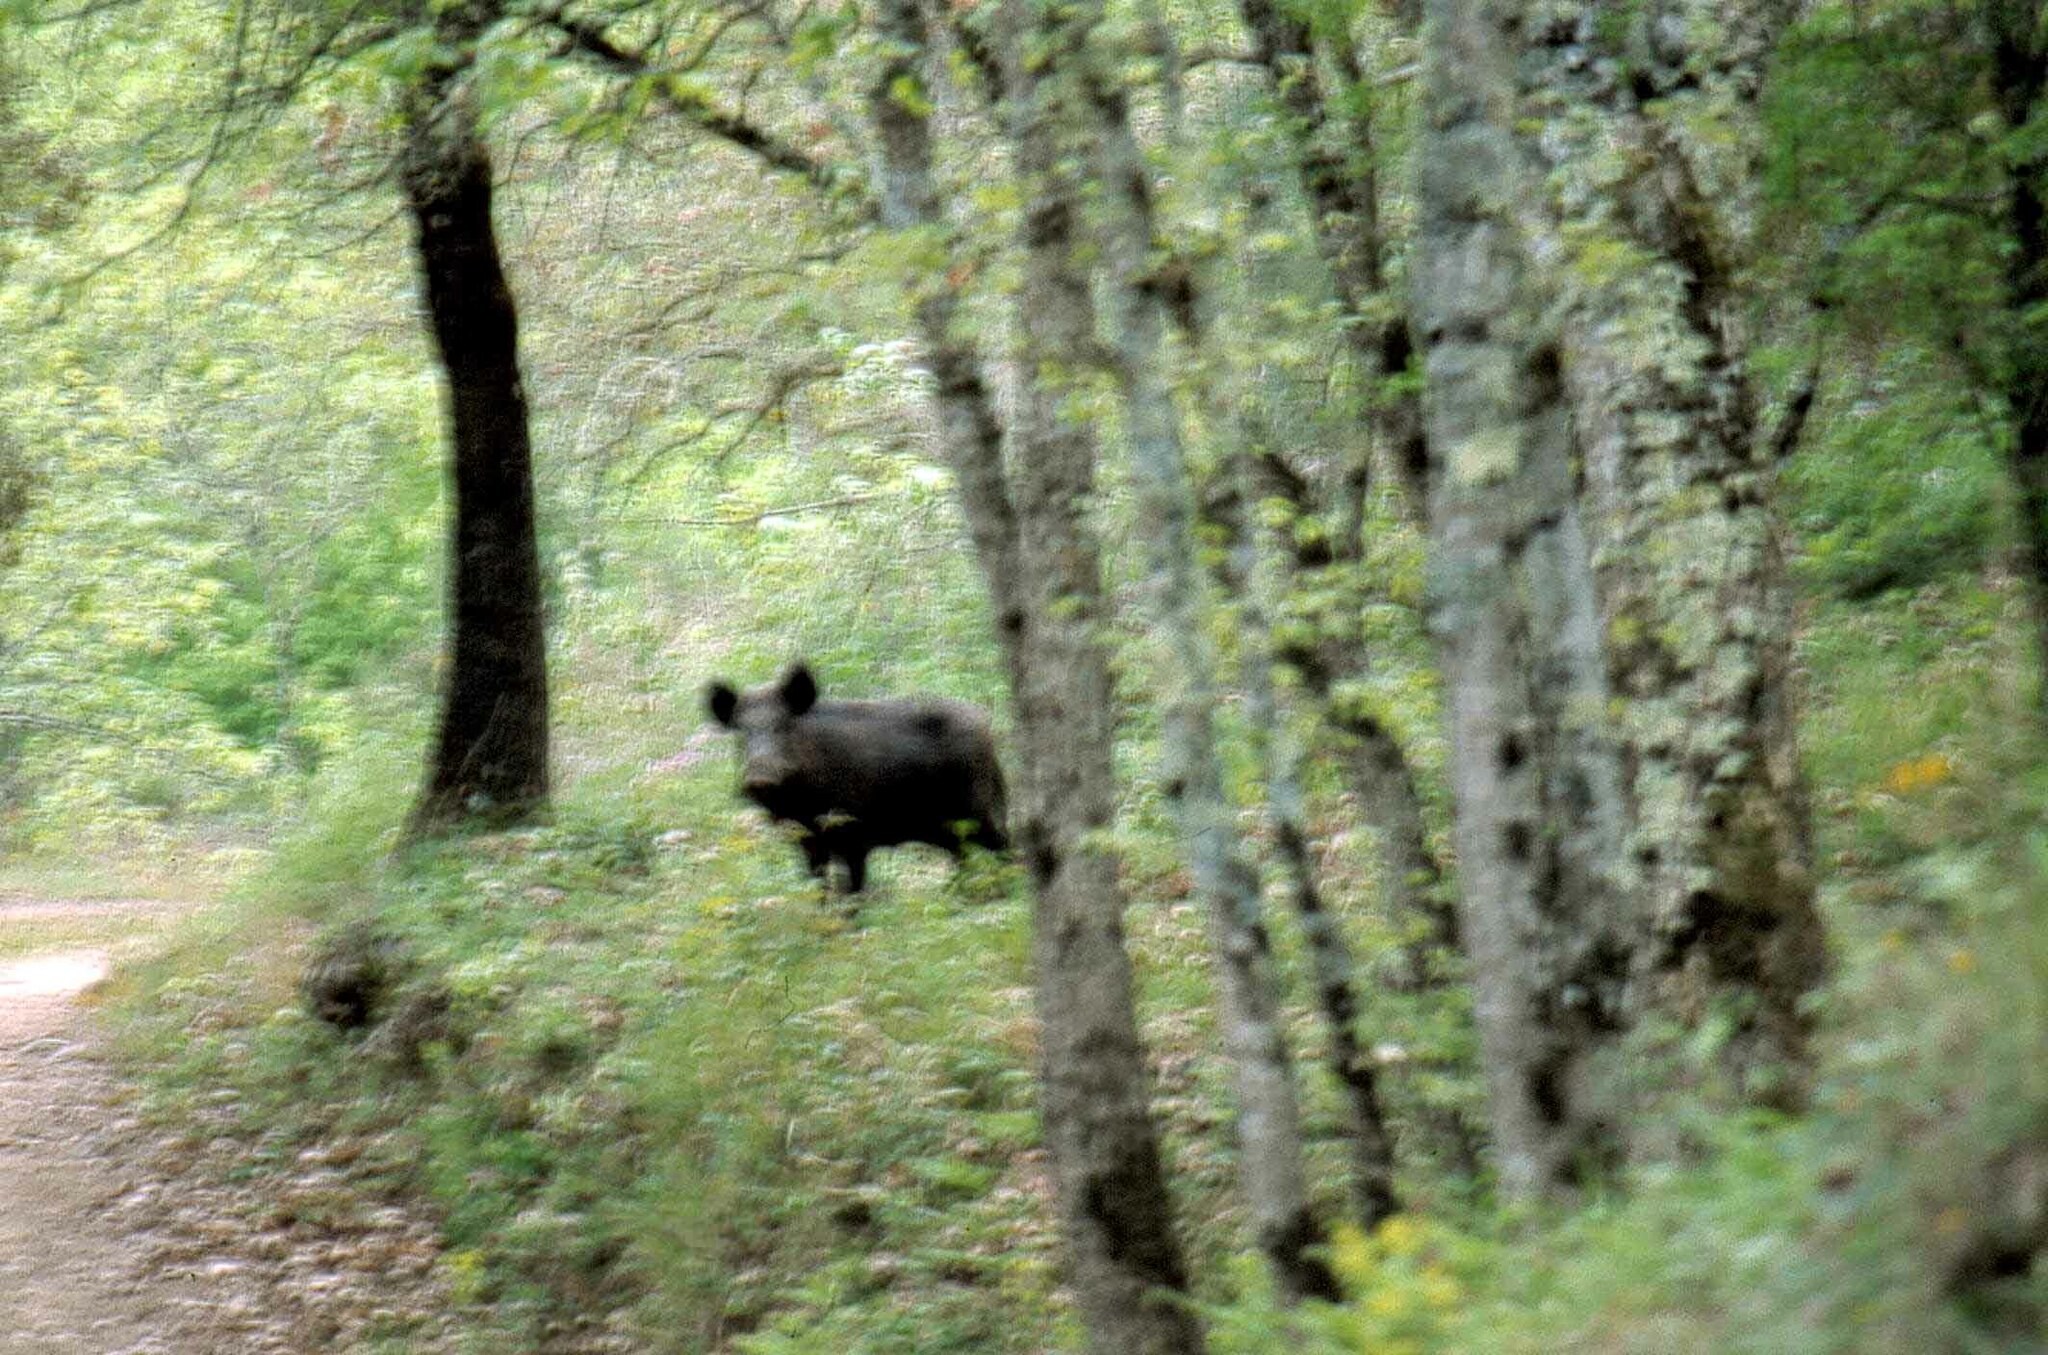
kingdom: Animalia
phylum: Chordata
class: Mammalia
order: Artiodactyla
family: Suidae
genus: Sus
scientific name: Sus scrofa
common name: Wild boar
